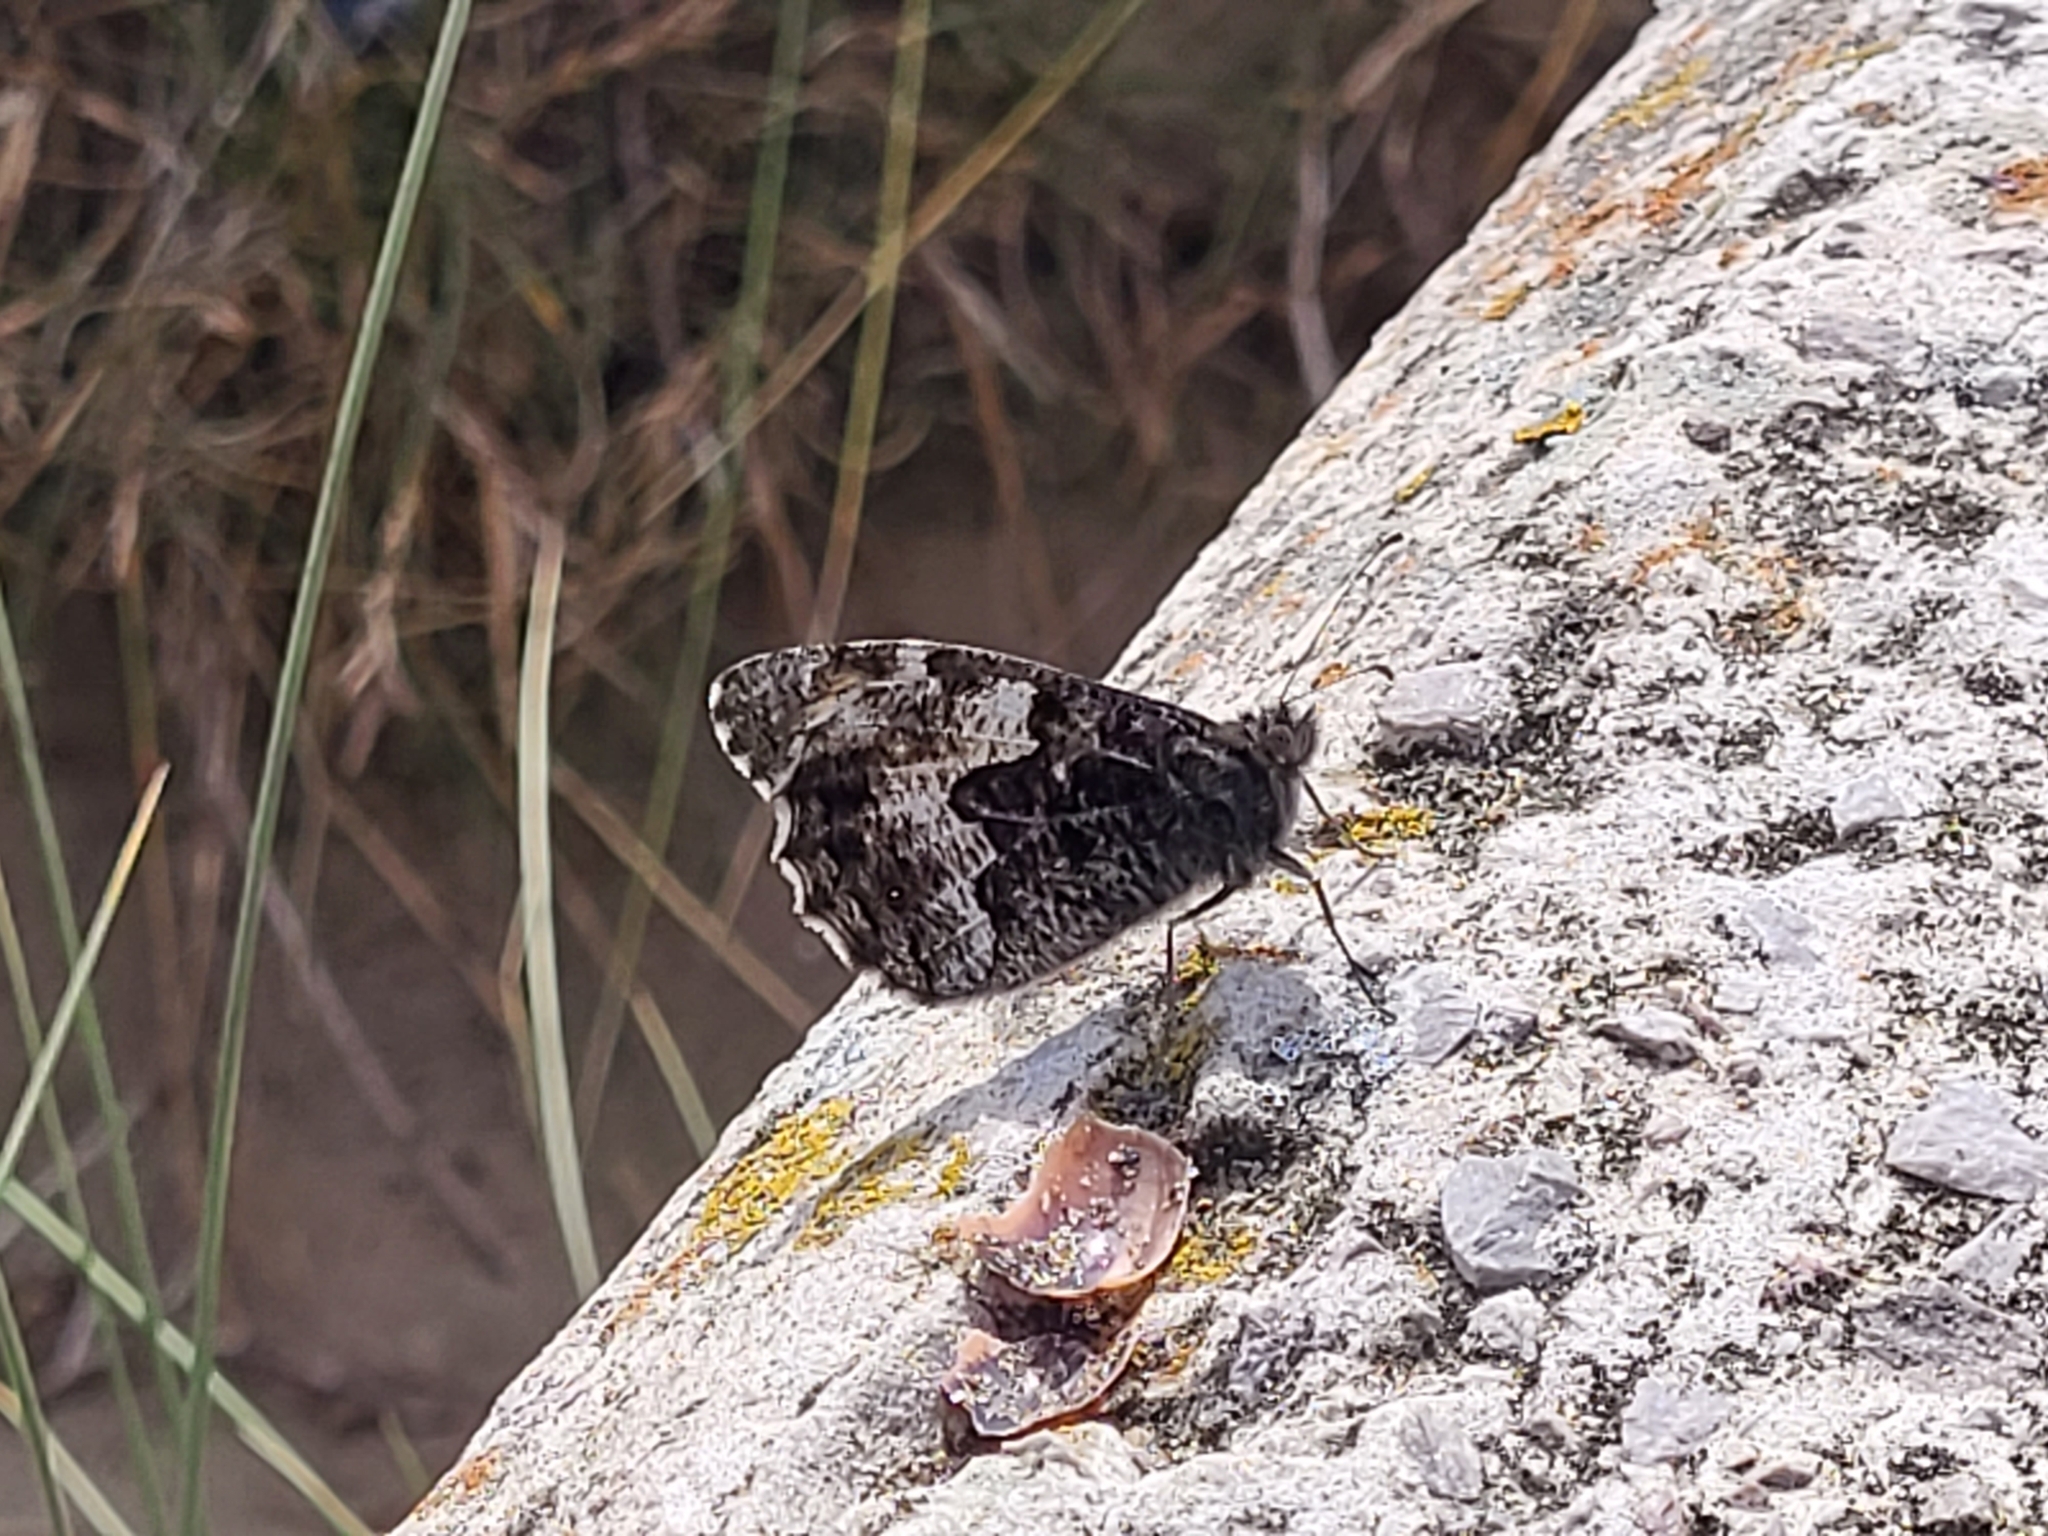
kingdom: Animalia
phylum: Arthropoda
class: Insecta
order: Lepidoptera
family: Nymphalidae
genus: Hipparchia
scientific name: Hipparchia semele
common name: Grayling
